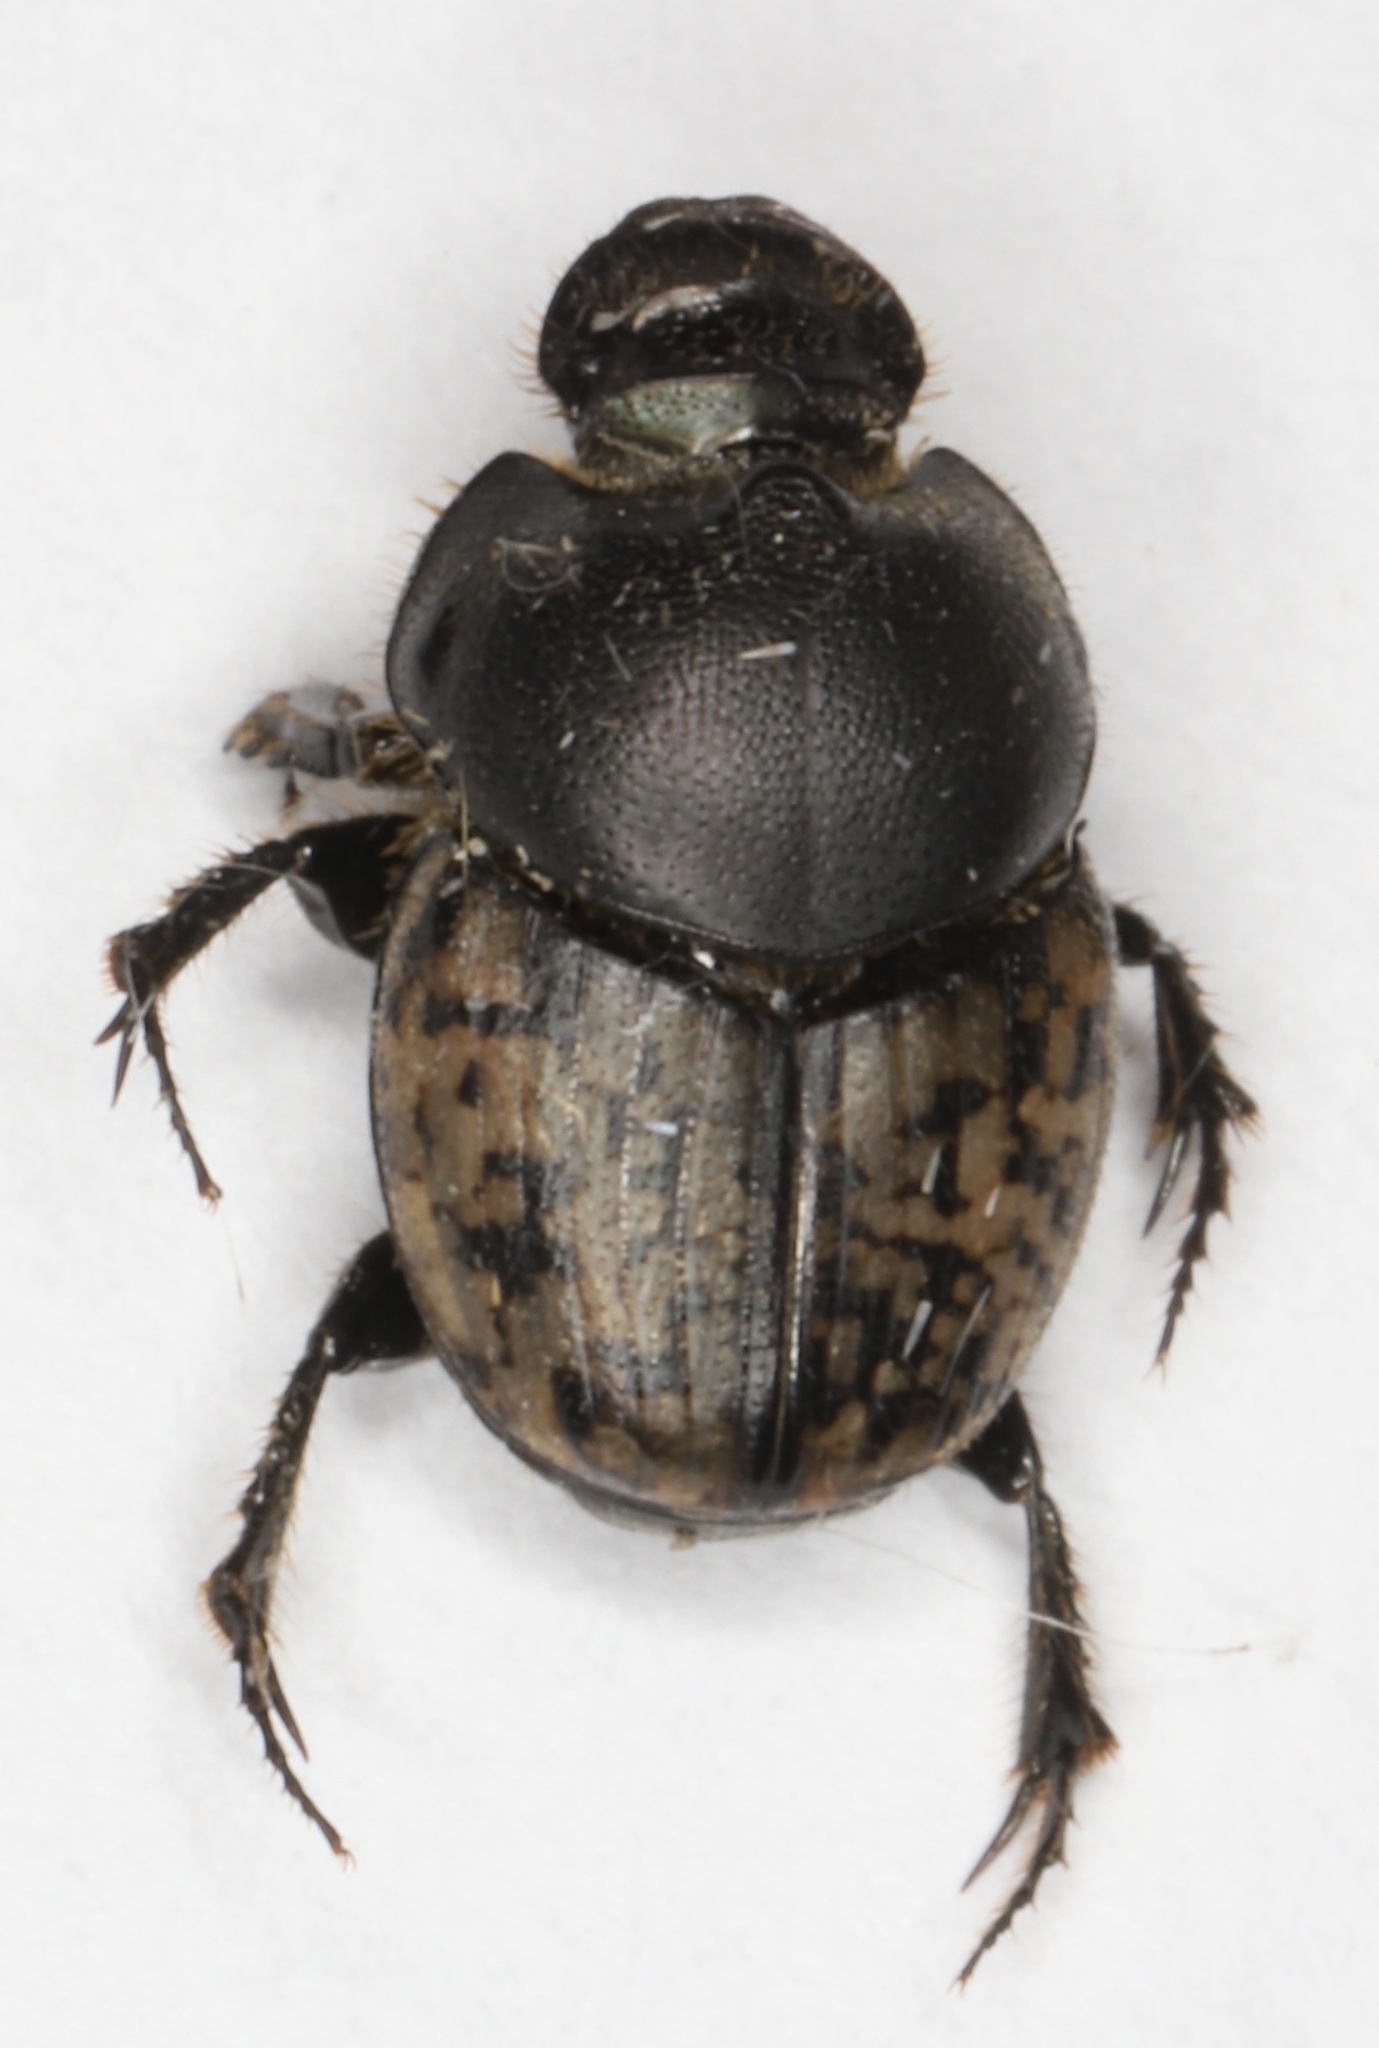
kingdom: Animalia
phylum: Arthropoda
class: Insecta
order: Coleoptera
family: Scarabaeidae
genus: Onthophagus
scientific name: Onthophagus nuchicornis
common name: Mottled dung beetle
